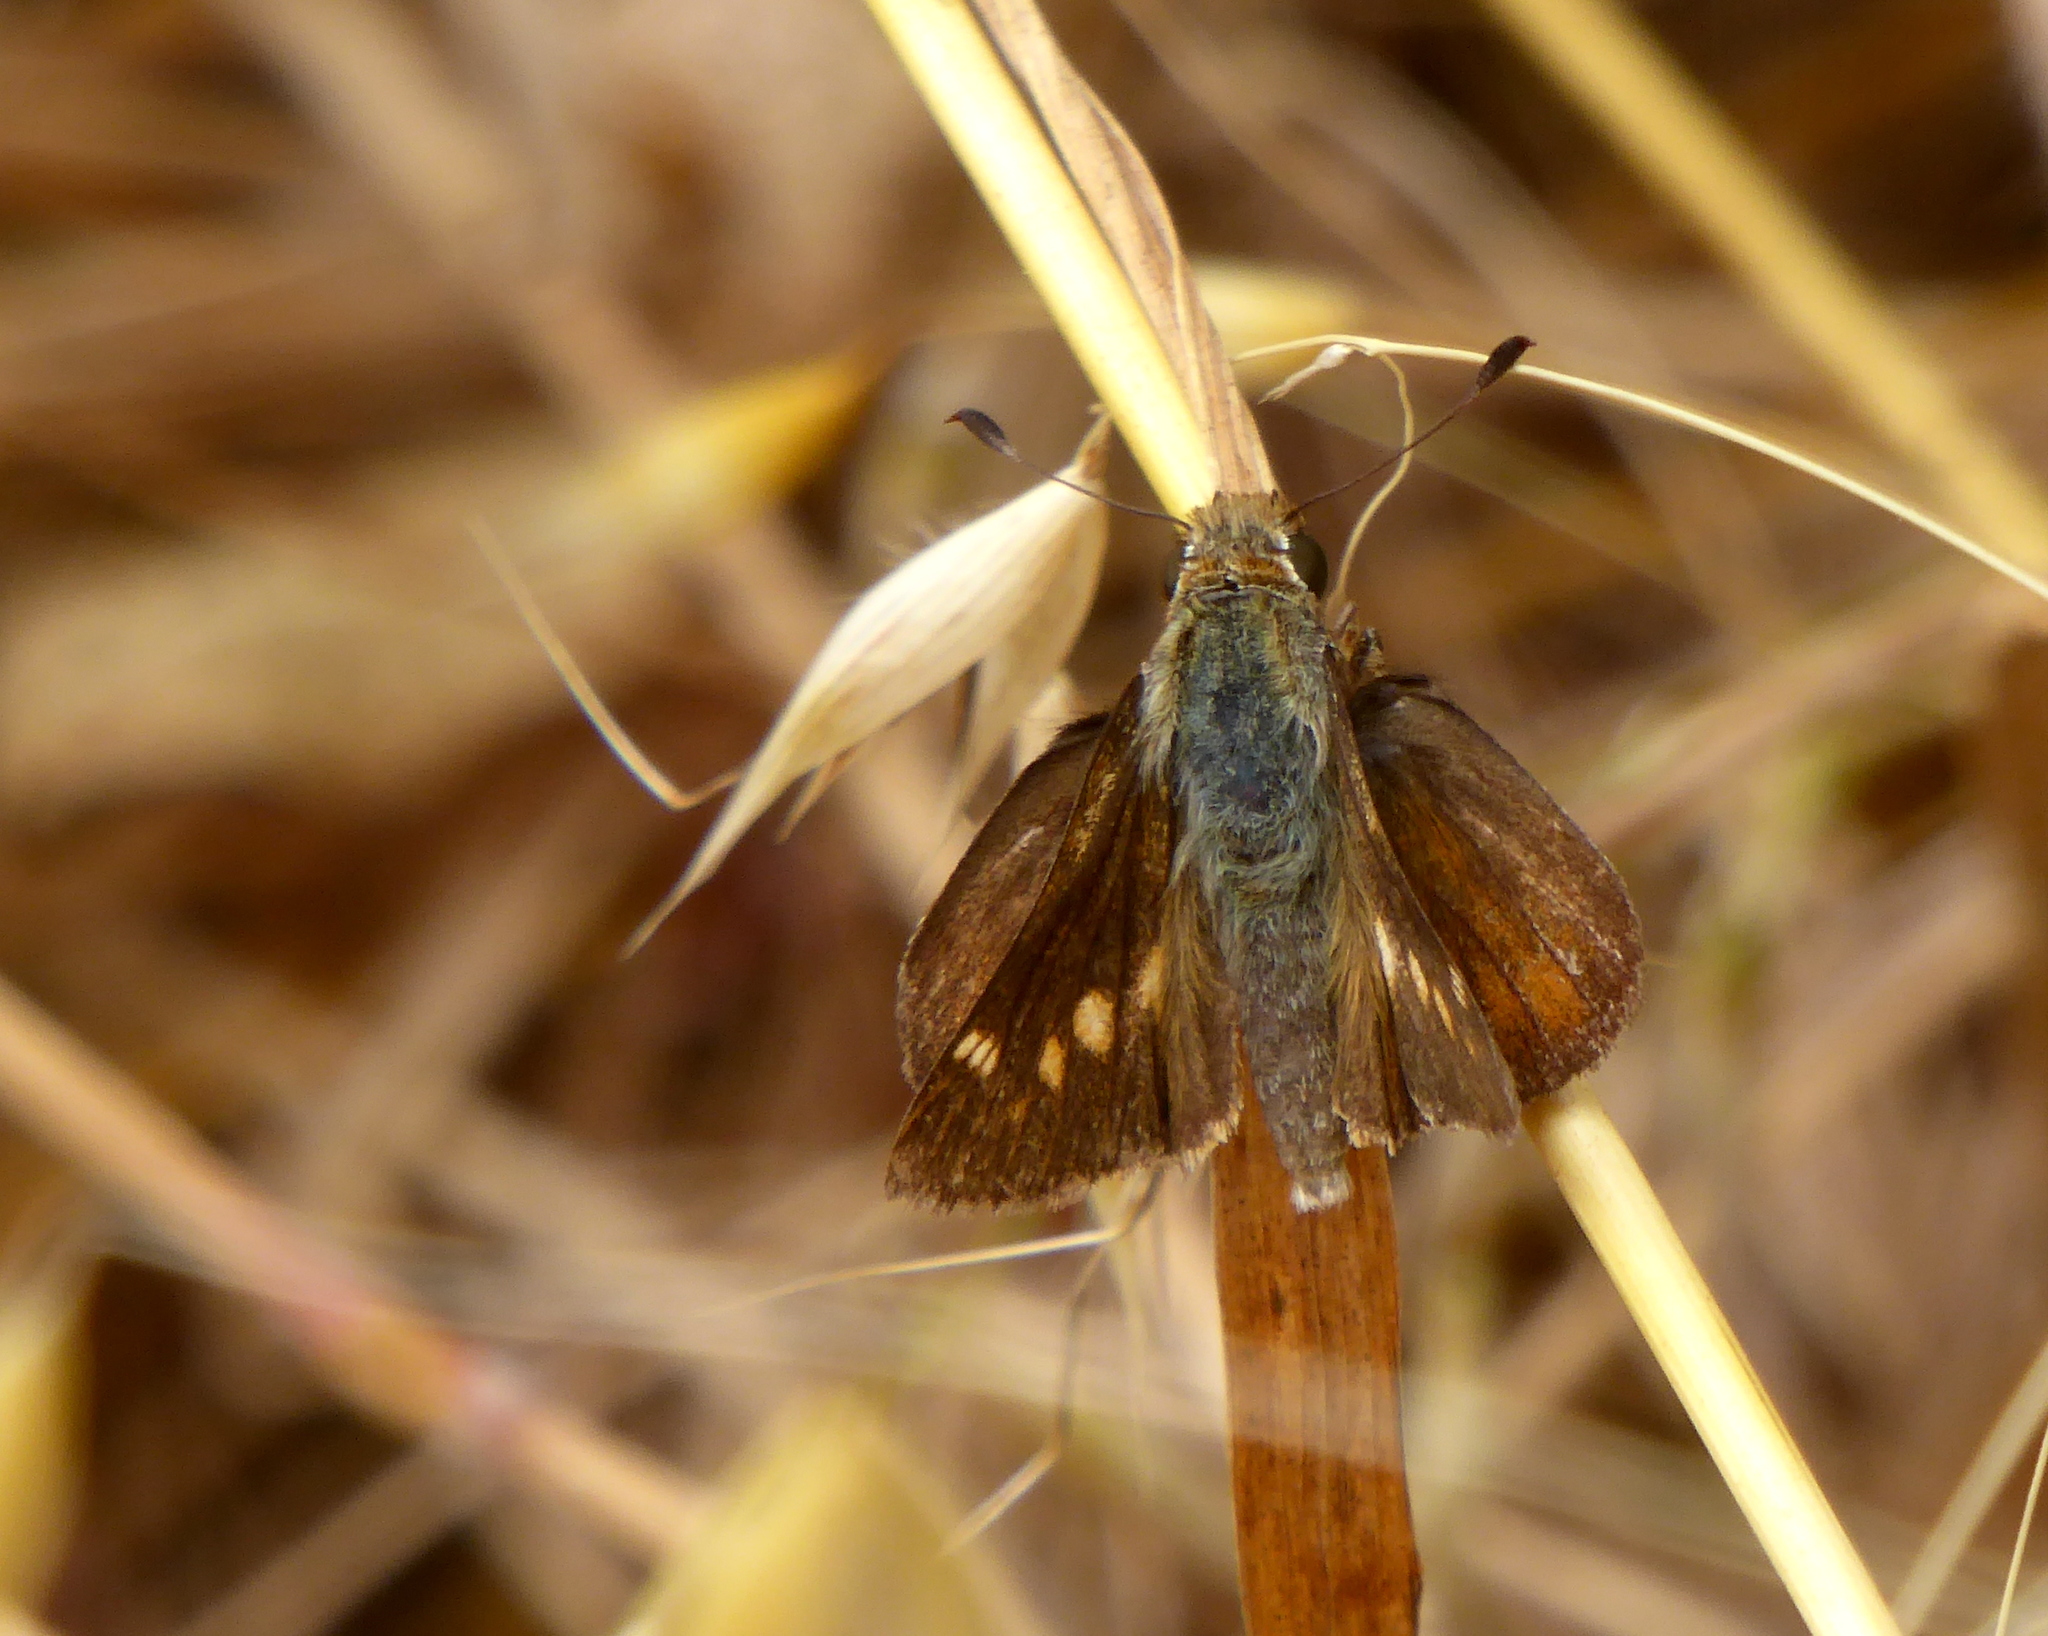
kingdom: Animalia
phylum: Arthropoda
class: Insecta
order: Lepidoptera
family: Hesperiidae
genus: Lon
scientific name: Lon melane
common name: Umber skipper
